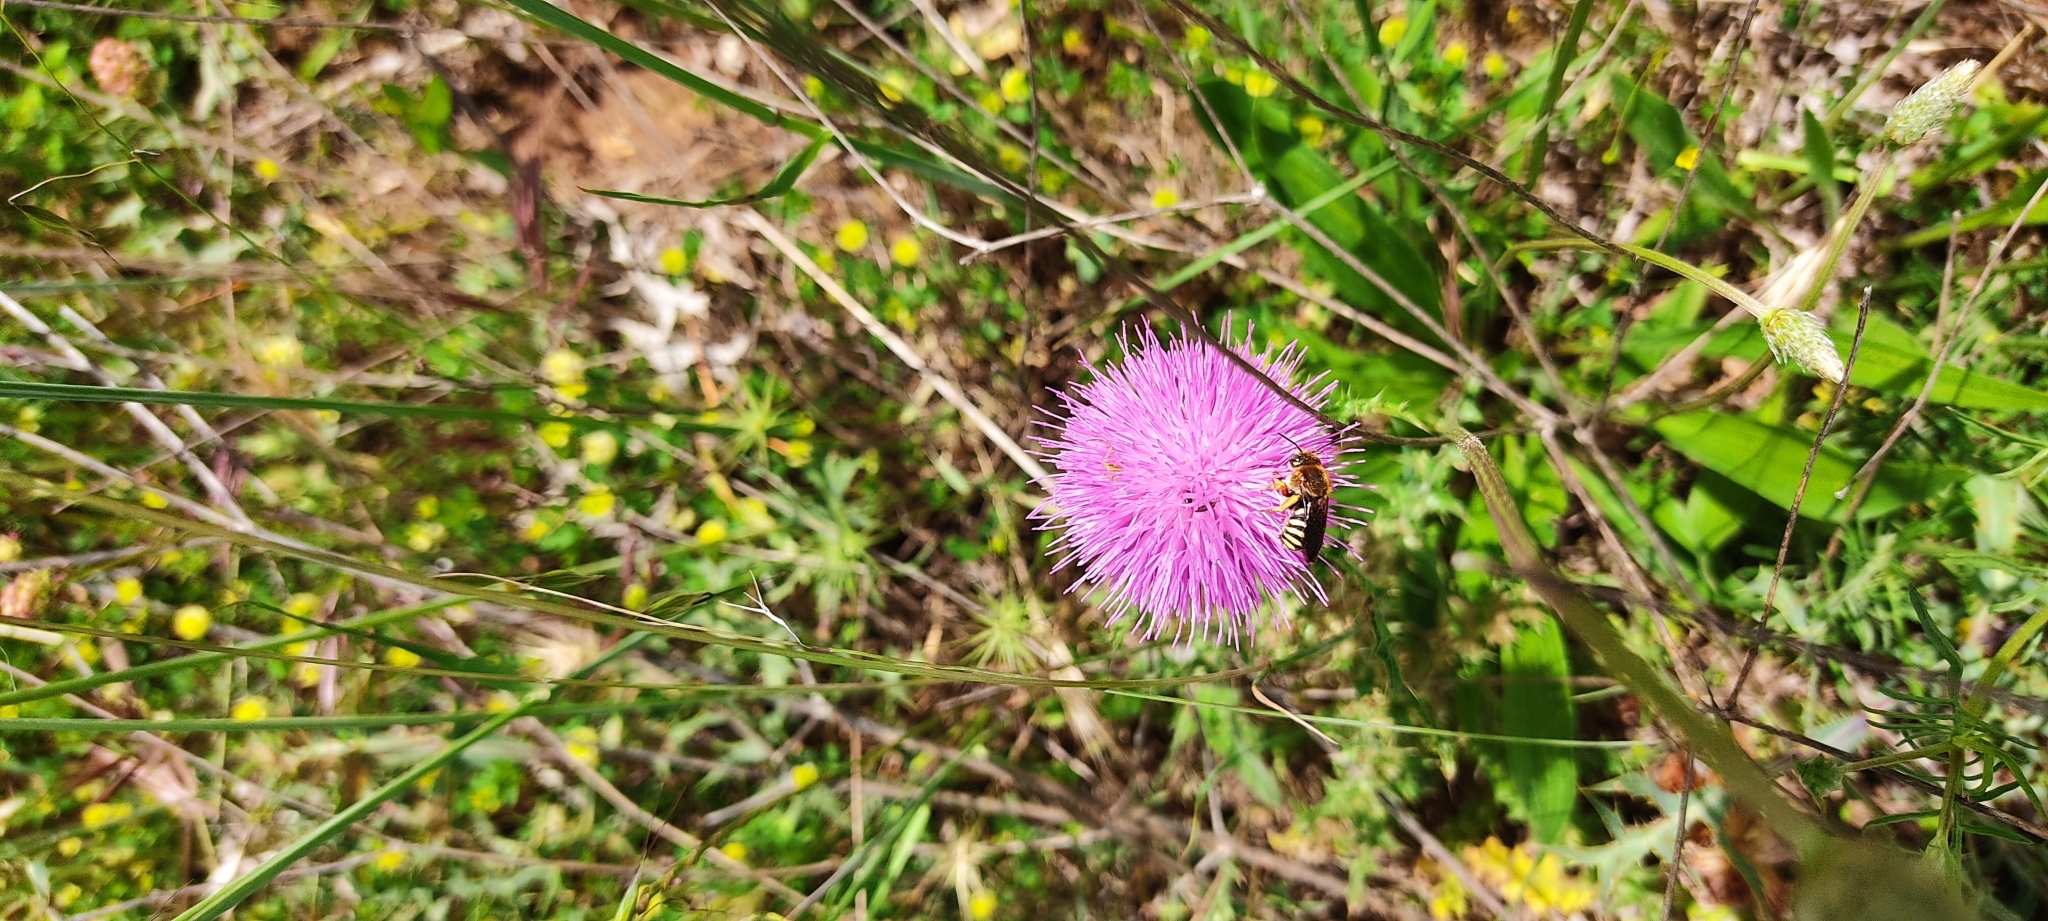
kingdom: Animalia
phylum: Arthropoda
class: Insecta
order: Hymenoptera
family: Megachilidae
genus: Rhodanthidium
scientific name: Rhodanthidium septemdentatum
